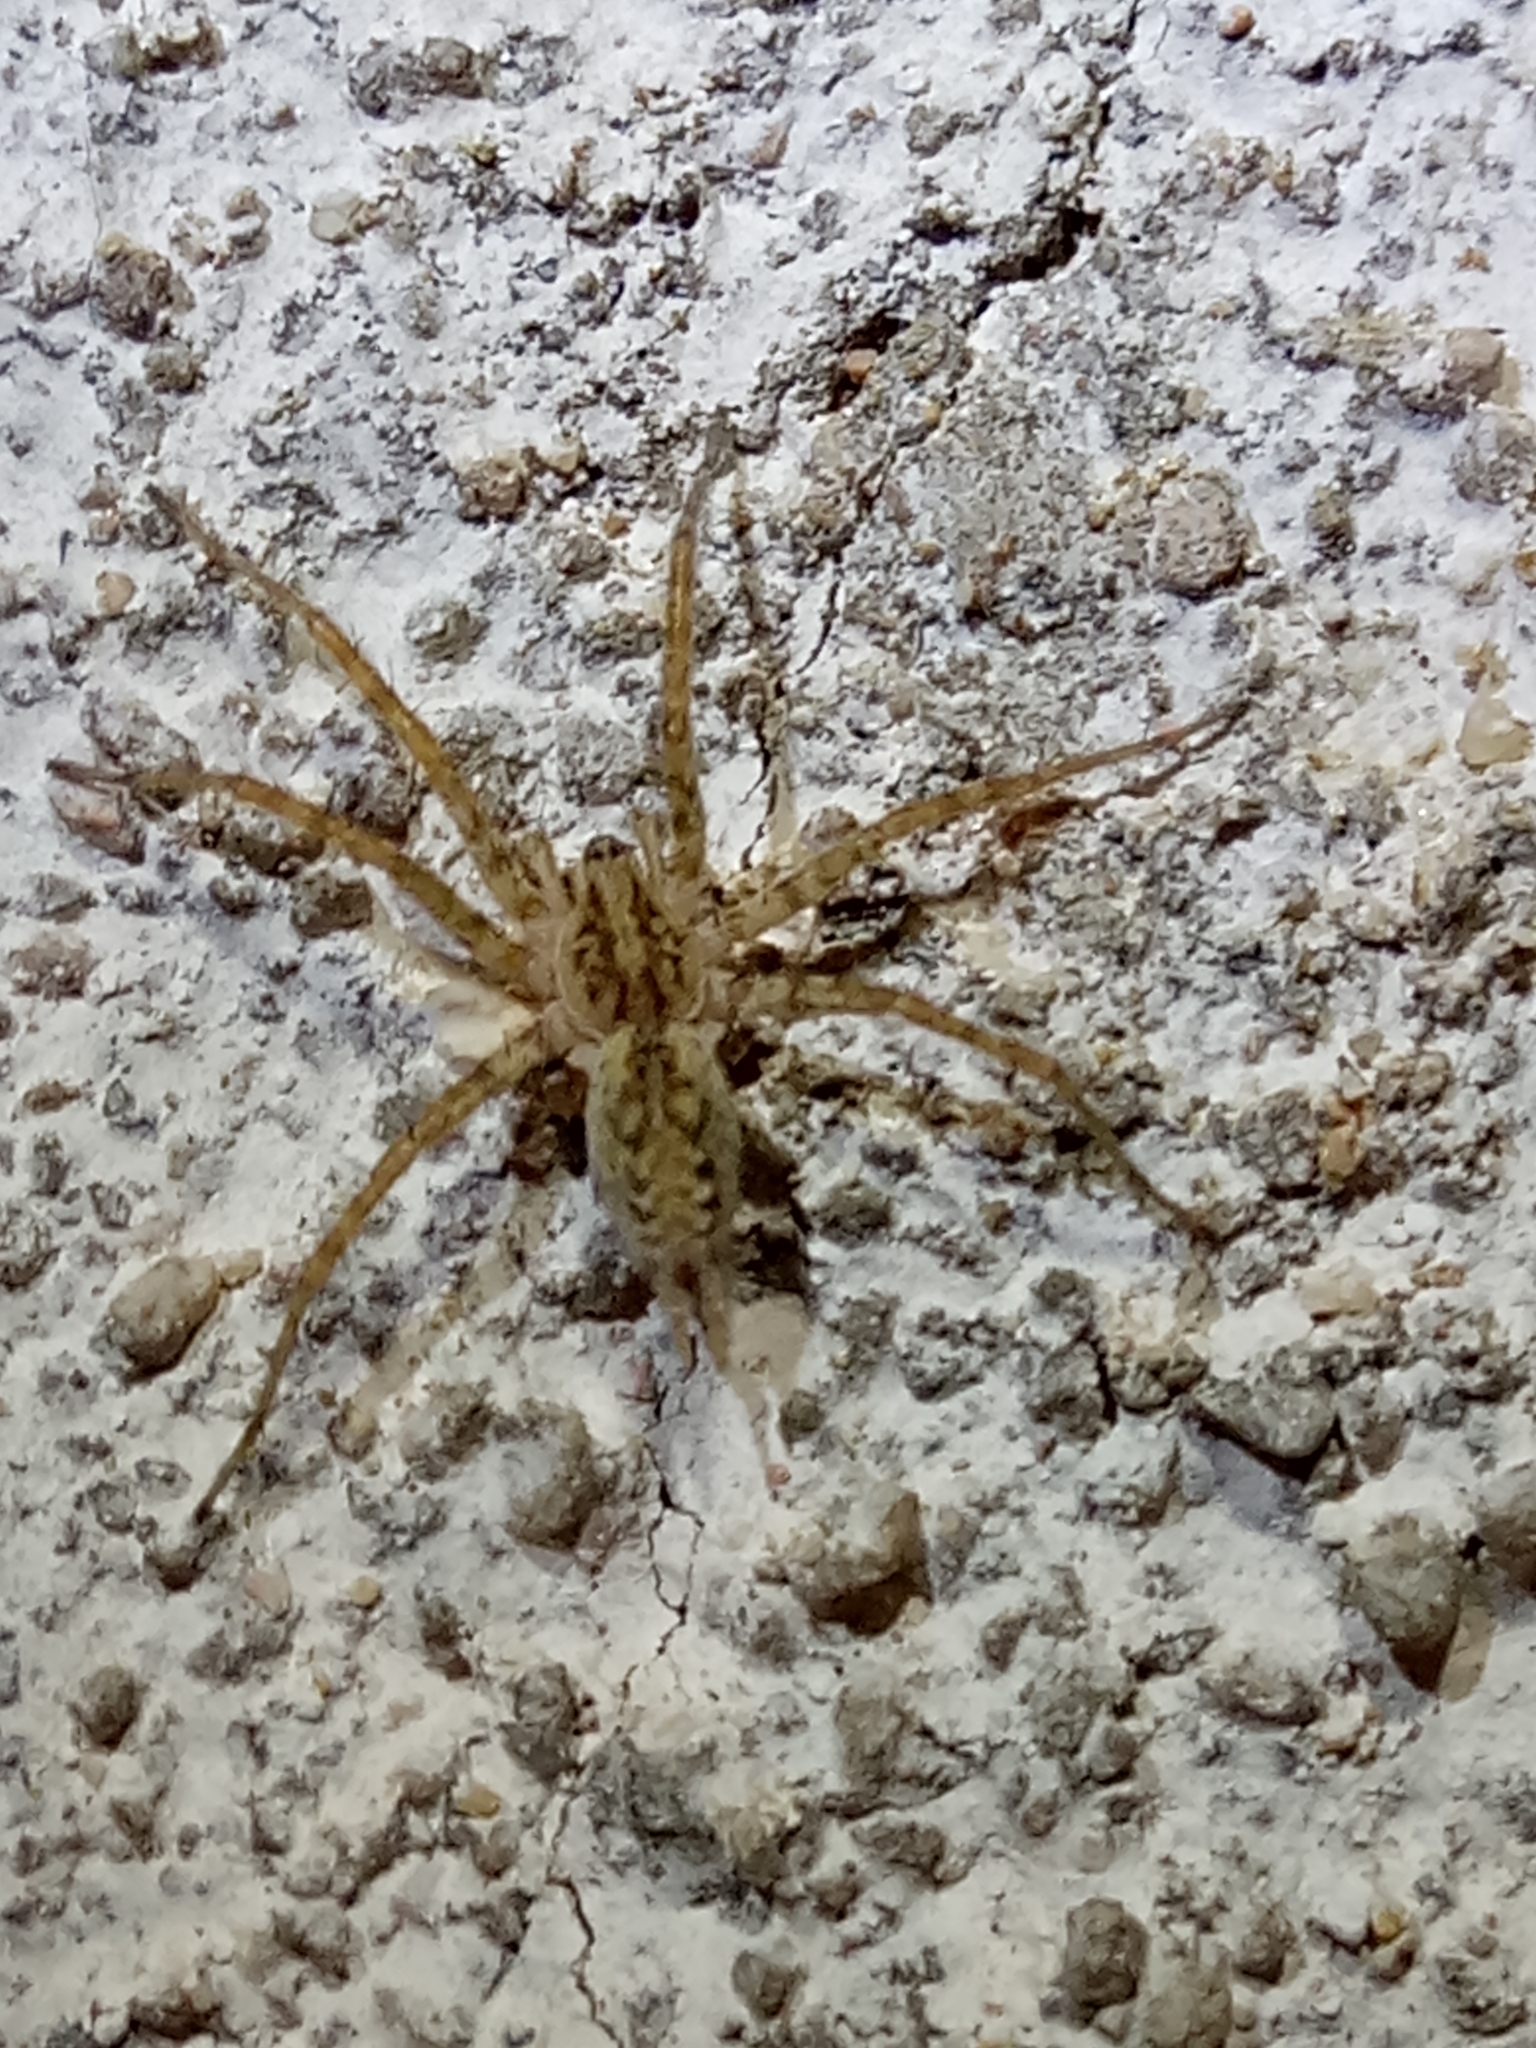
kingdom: Animalia
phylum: Arthropoda
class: Arachnida
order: Araneae
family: Agelenidae
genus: Benoitia
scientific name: Benoitia lepida
